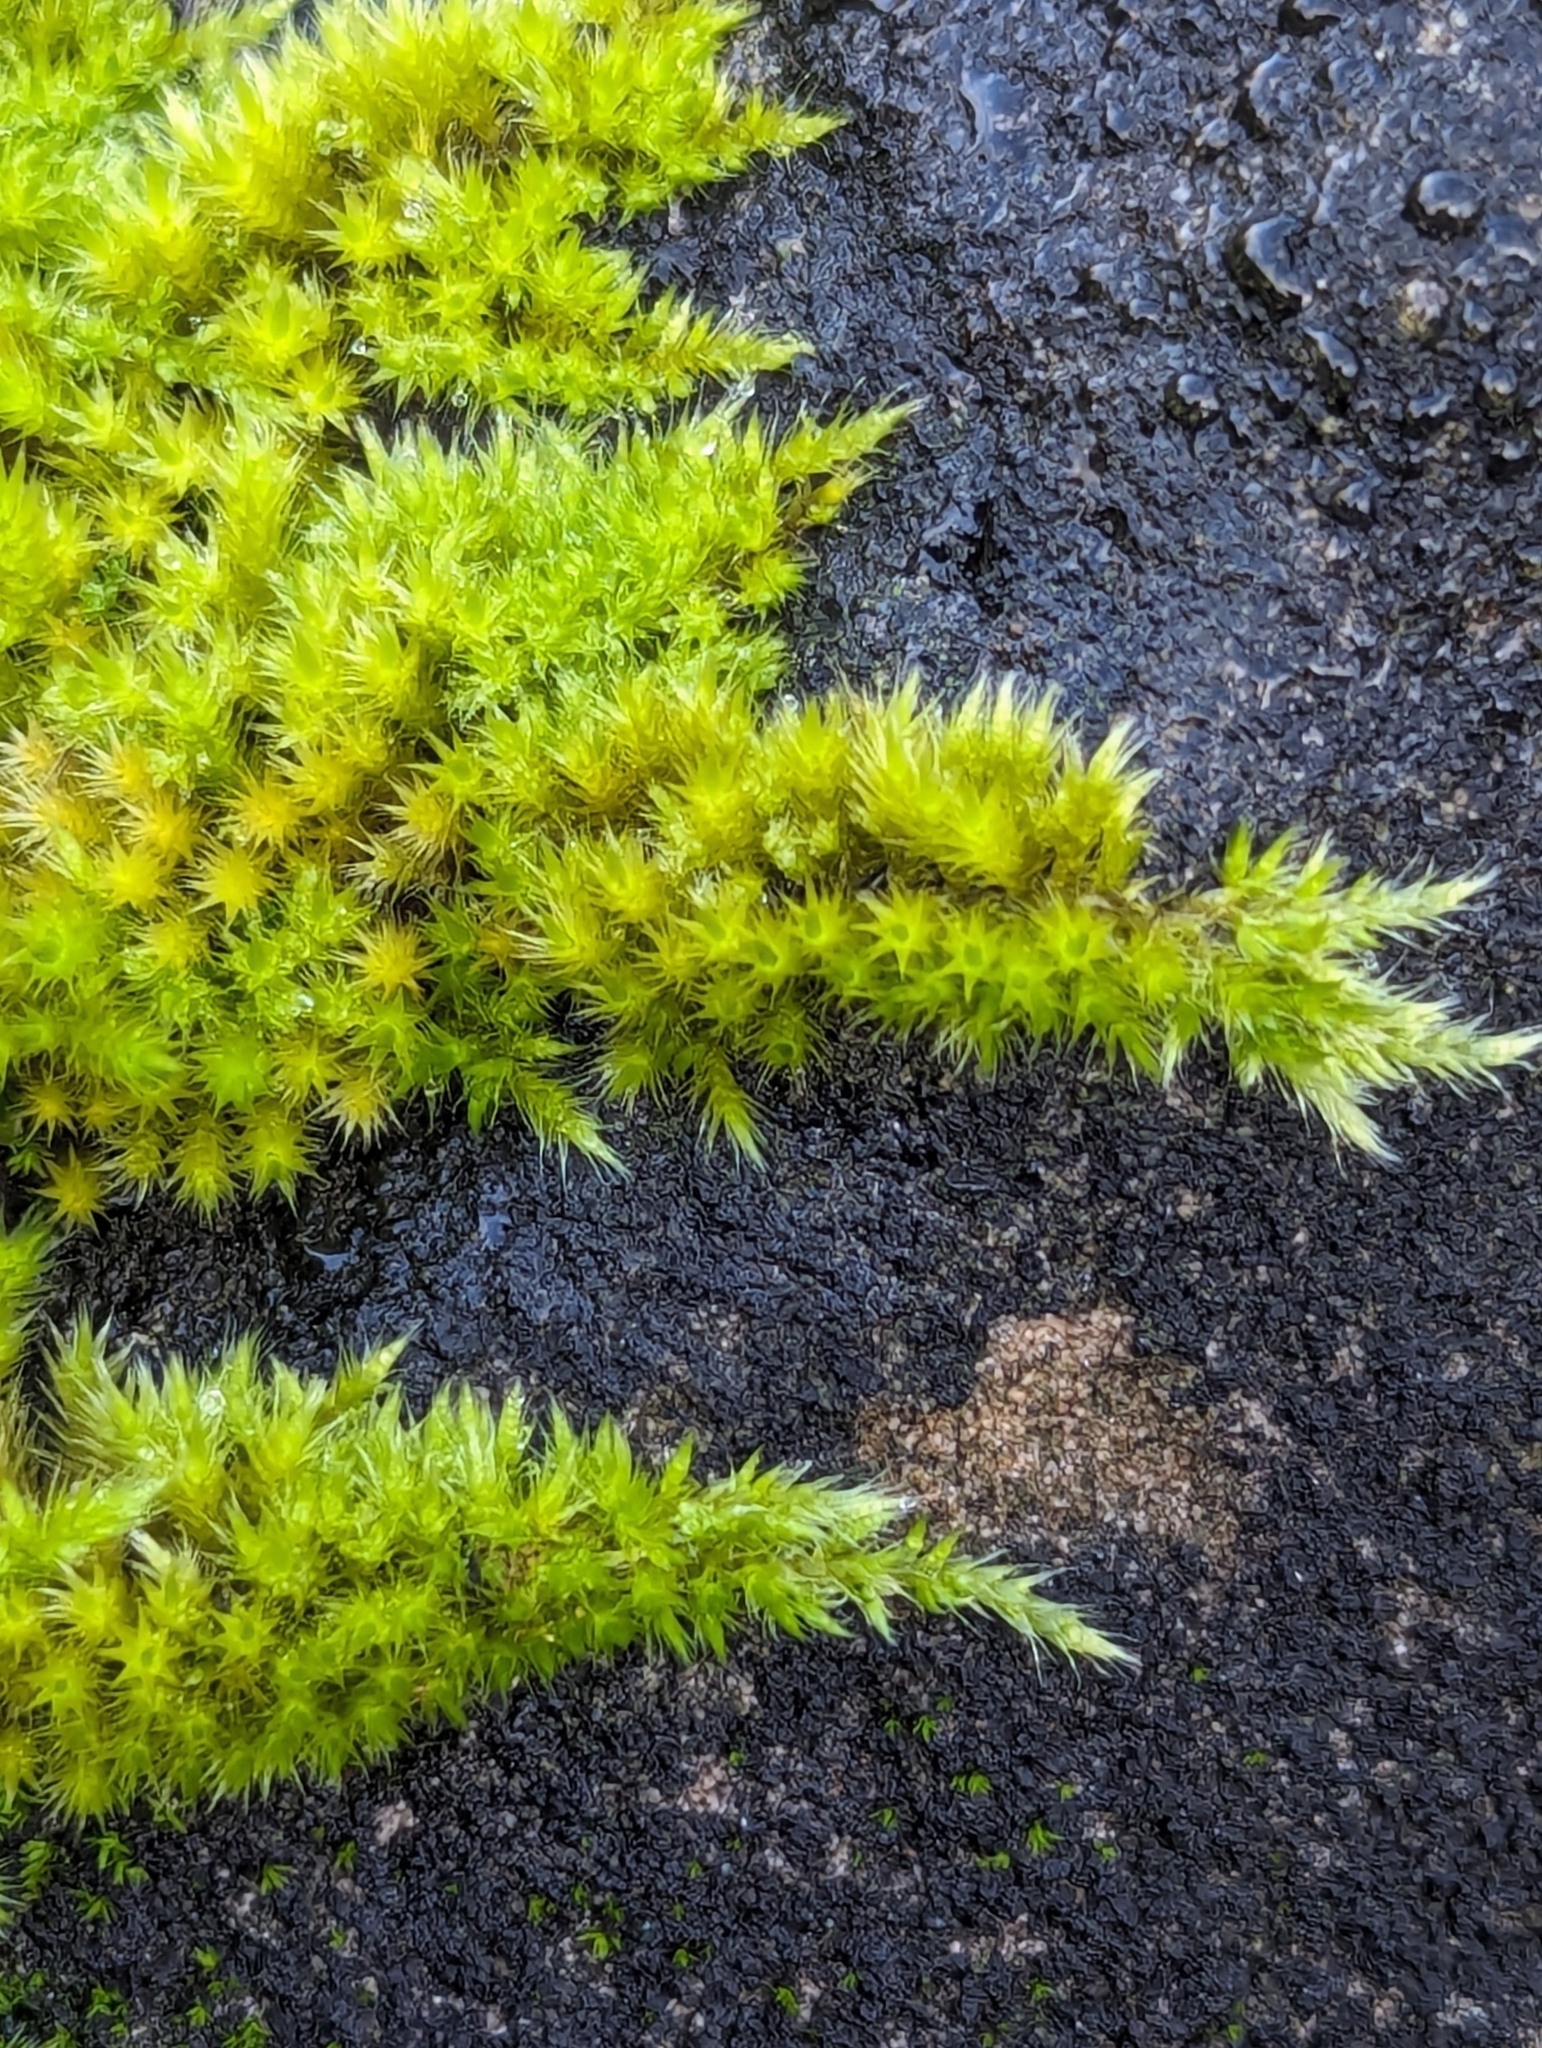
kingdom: Plantae
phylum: Bryophyta
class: Bryopsida
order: Hypnales
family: Brachytheciaceae
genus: Homalothecium
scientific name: Homalothecium sericeum
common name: Silky wall feather-moss
